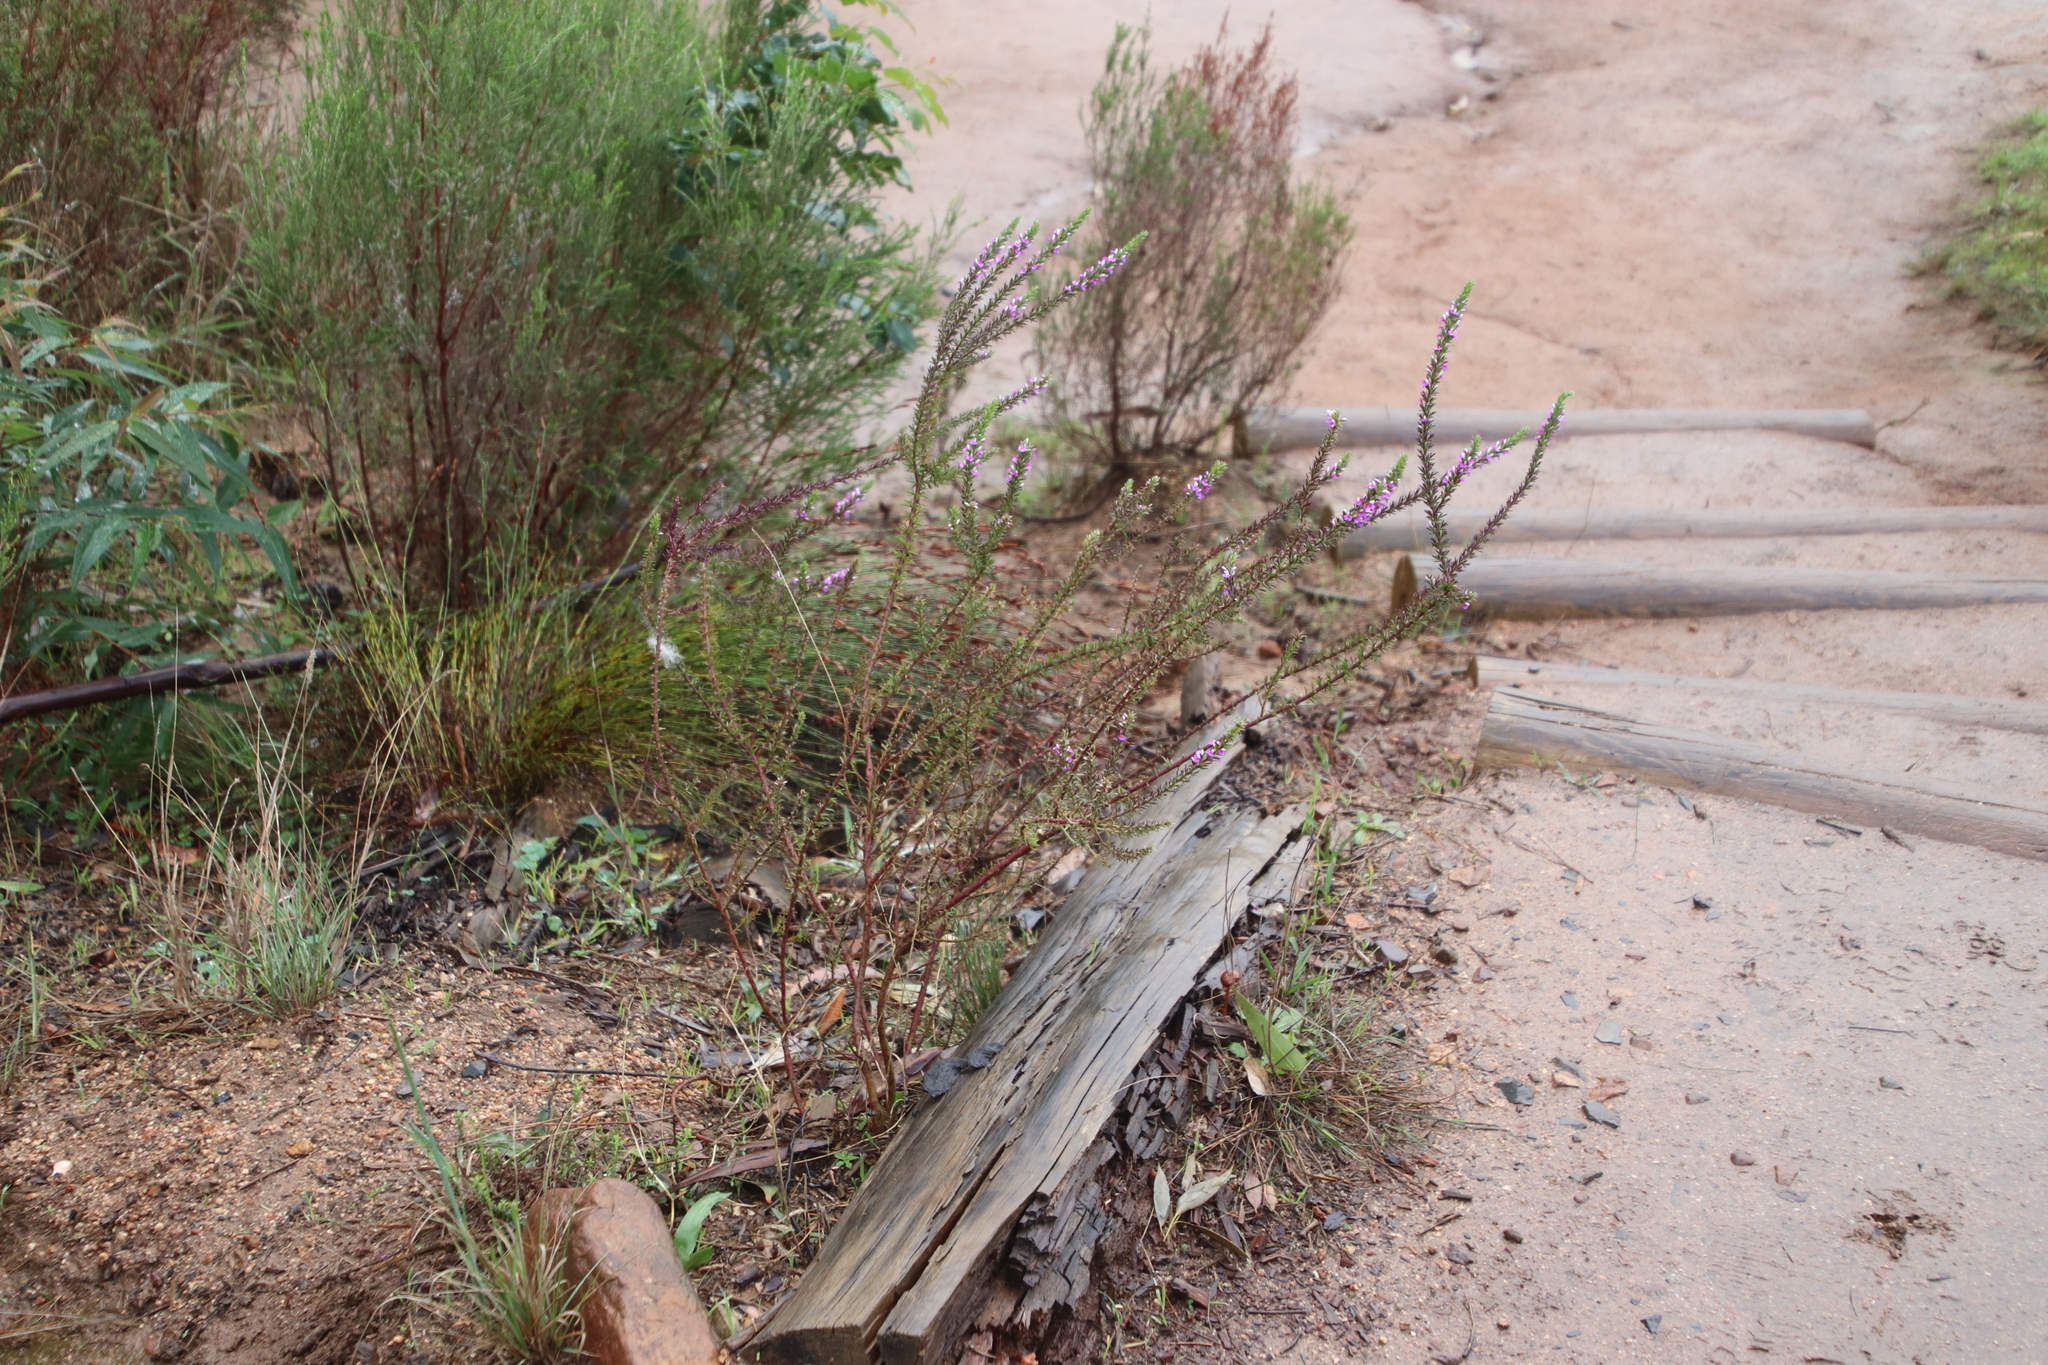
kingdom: Plantae
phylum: Tracheophyta
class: Magnoliopsida
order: Fabales
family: Polygalaceae
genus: Muraltia
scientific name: Muraltia heisteria
